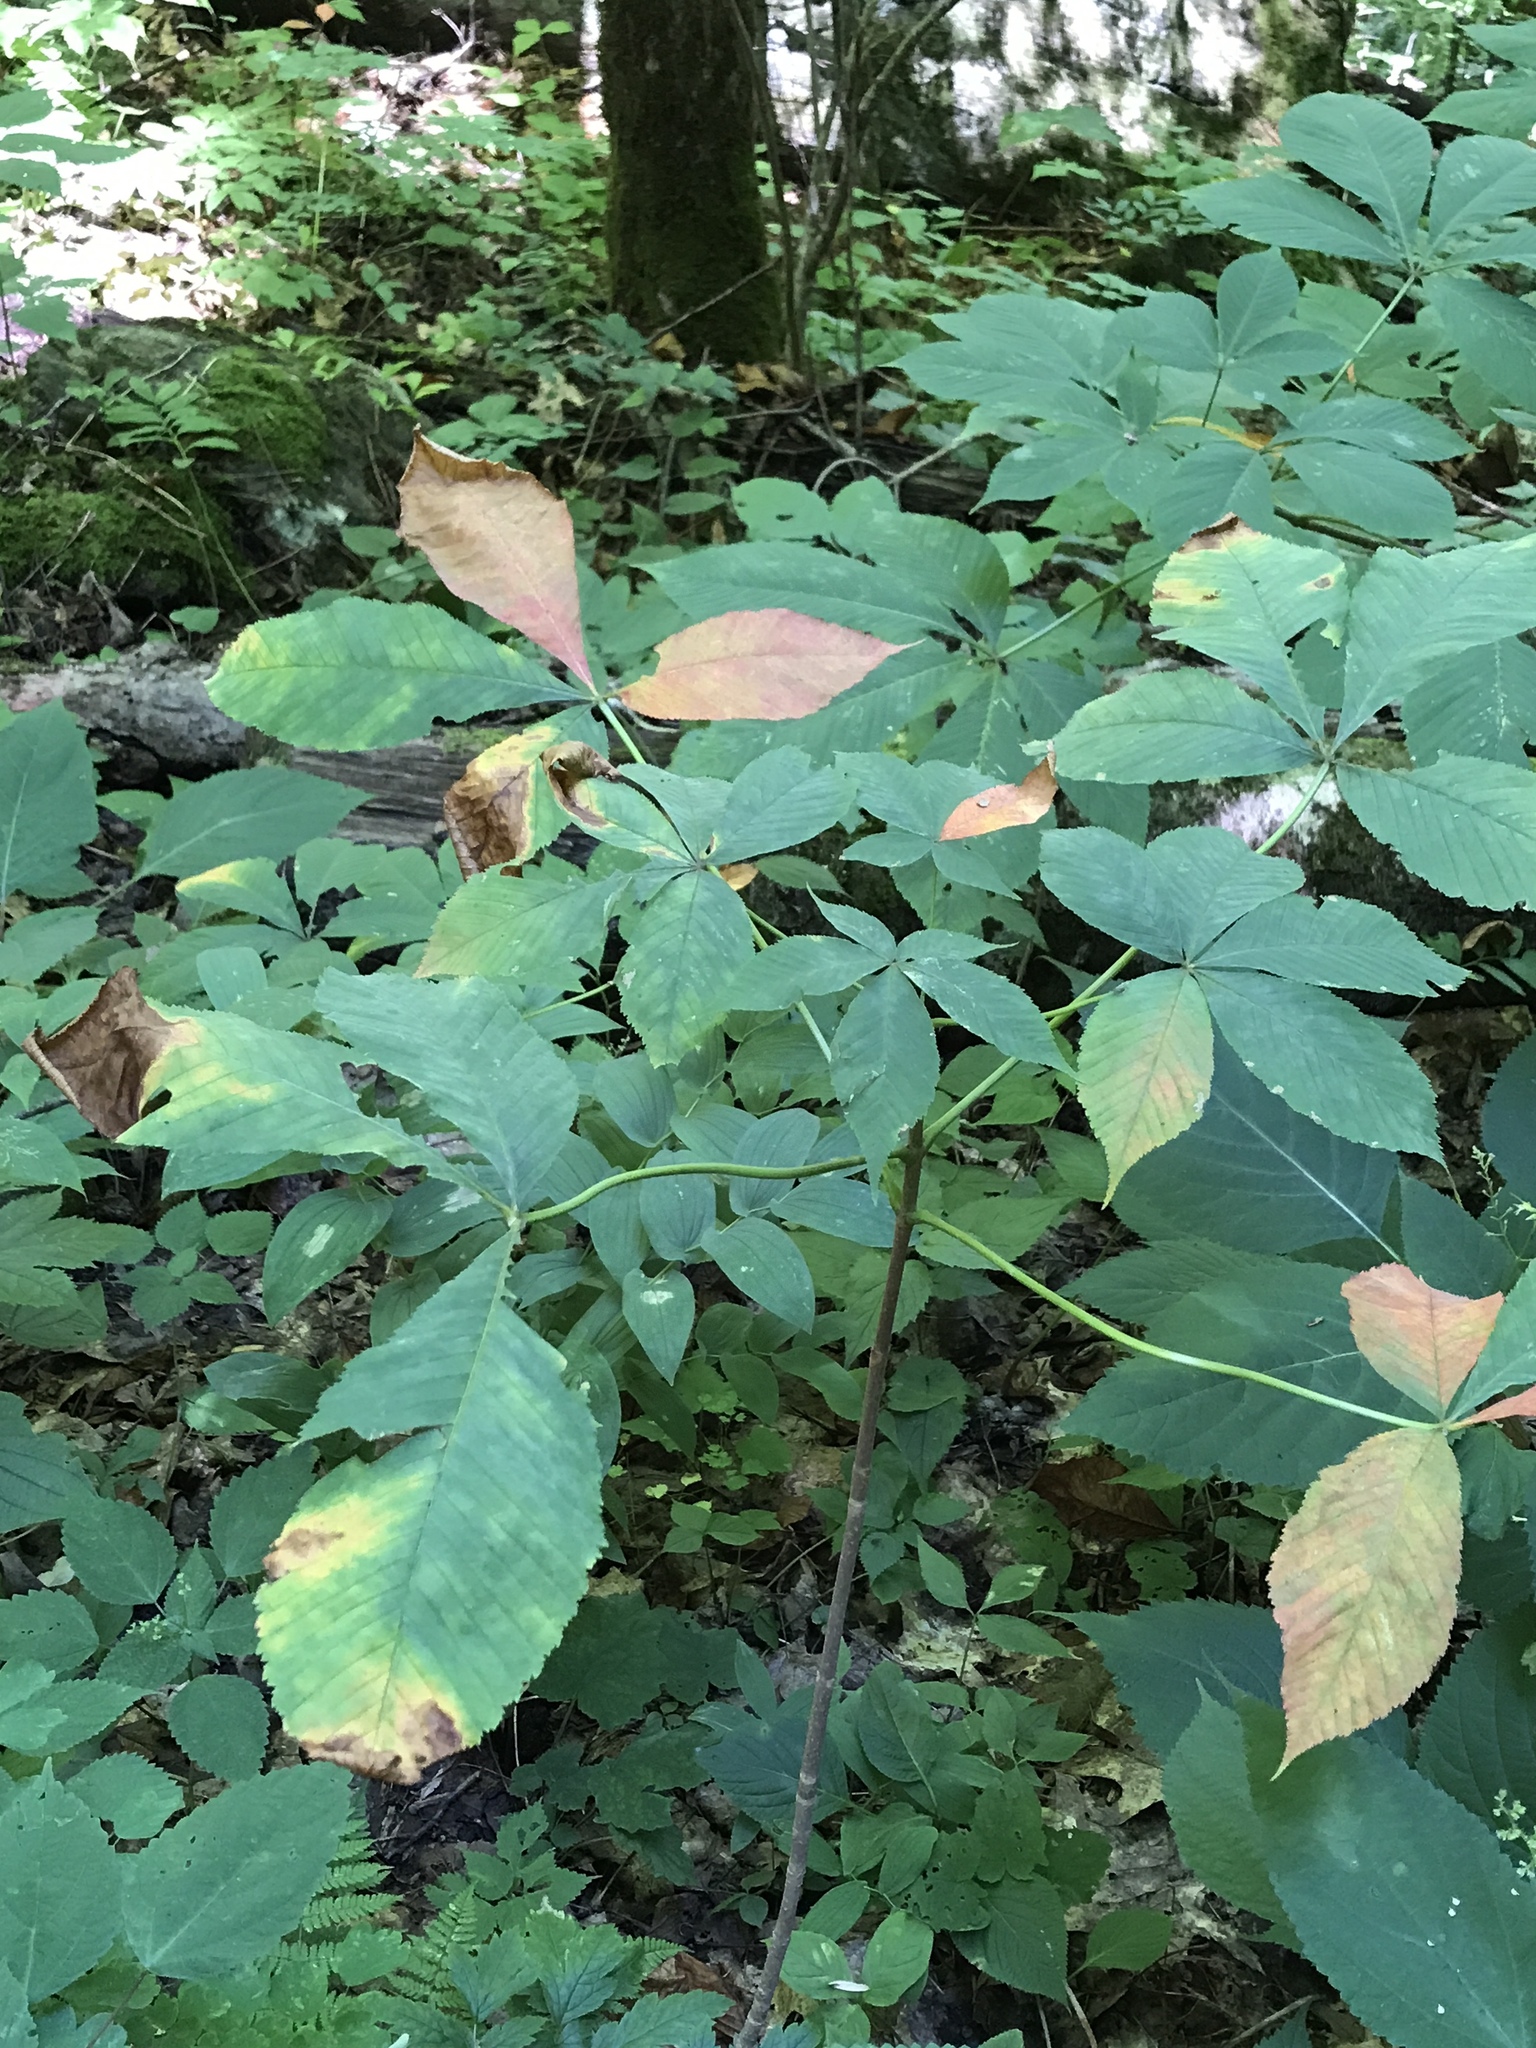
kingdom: Plantae
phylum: Tracheophyta
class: Magnoliopsida
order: Sapindales
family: Sapindaceae
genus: Aesculus
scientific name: Aesculus flava
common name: Yellow buckeye
